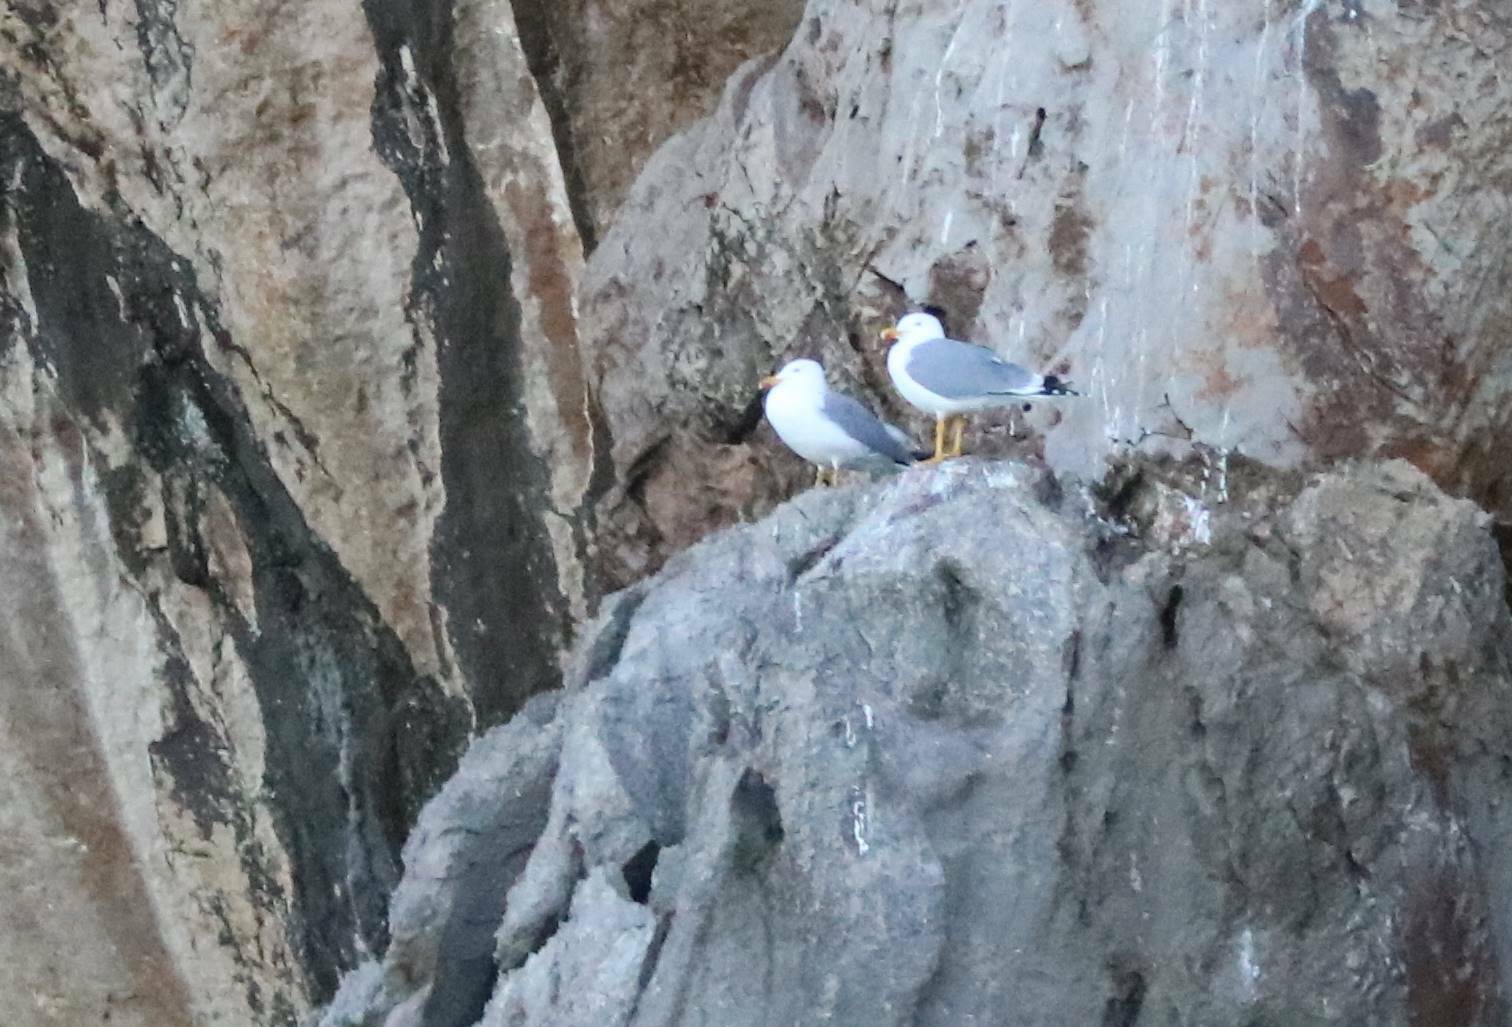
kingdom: Animalia
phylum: Chordata
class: Aves
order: Charadriiformes
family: Laridae
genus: Larus
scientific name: Larus michahellis
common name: Yellow-legged gull
